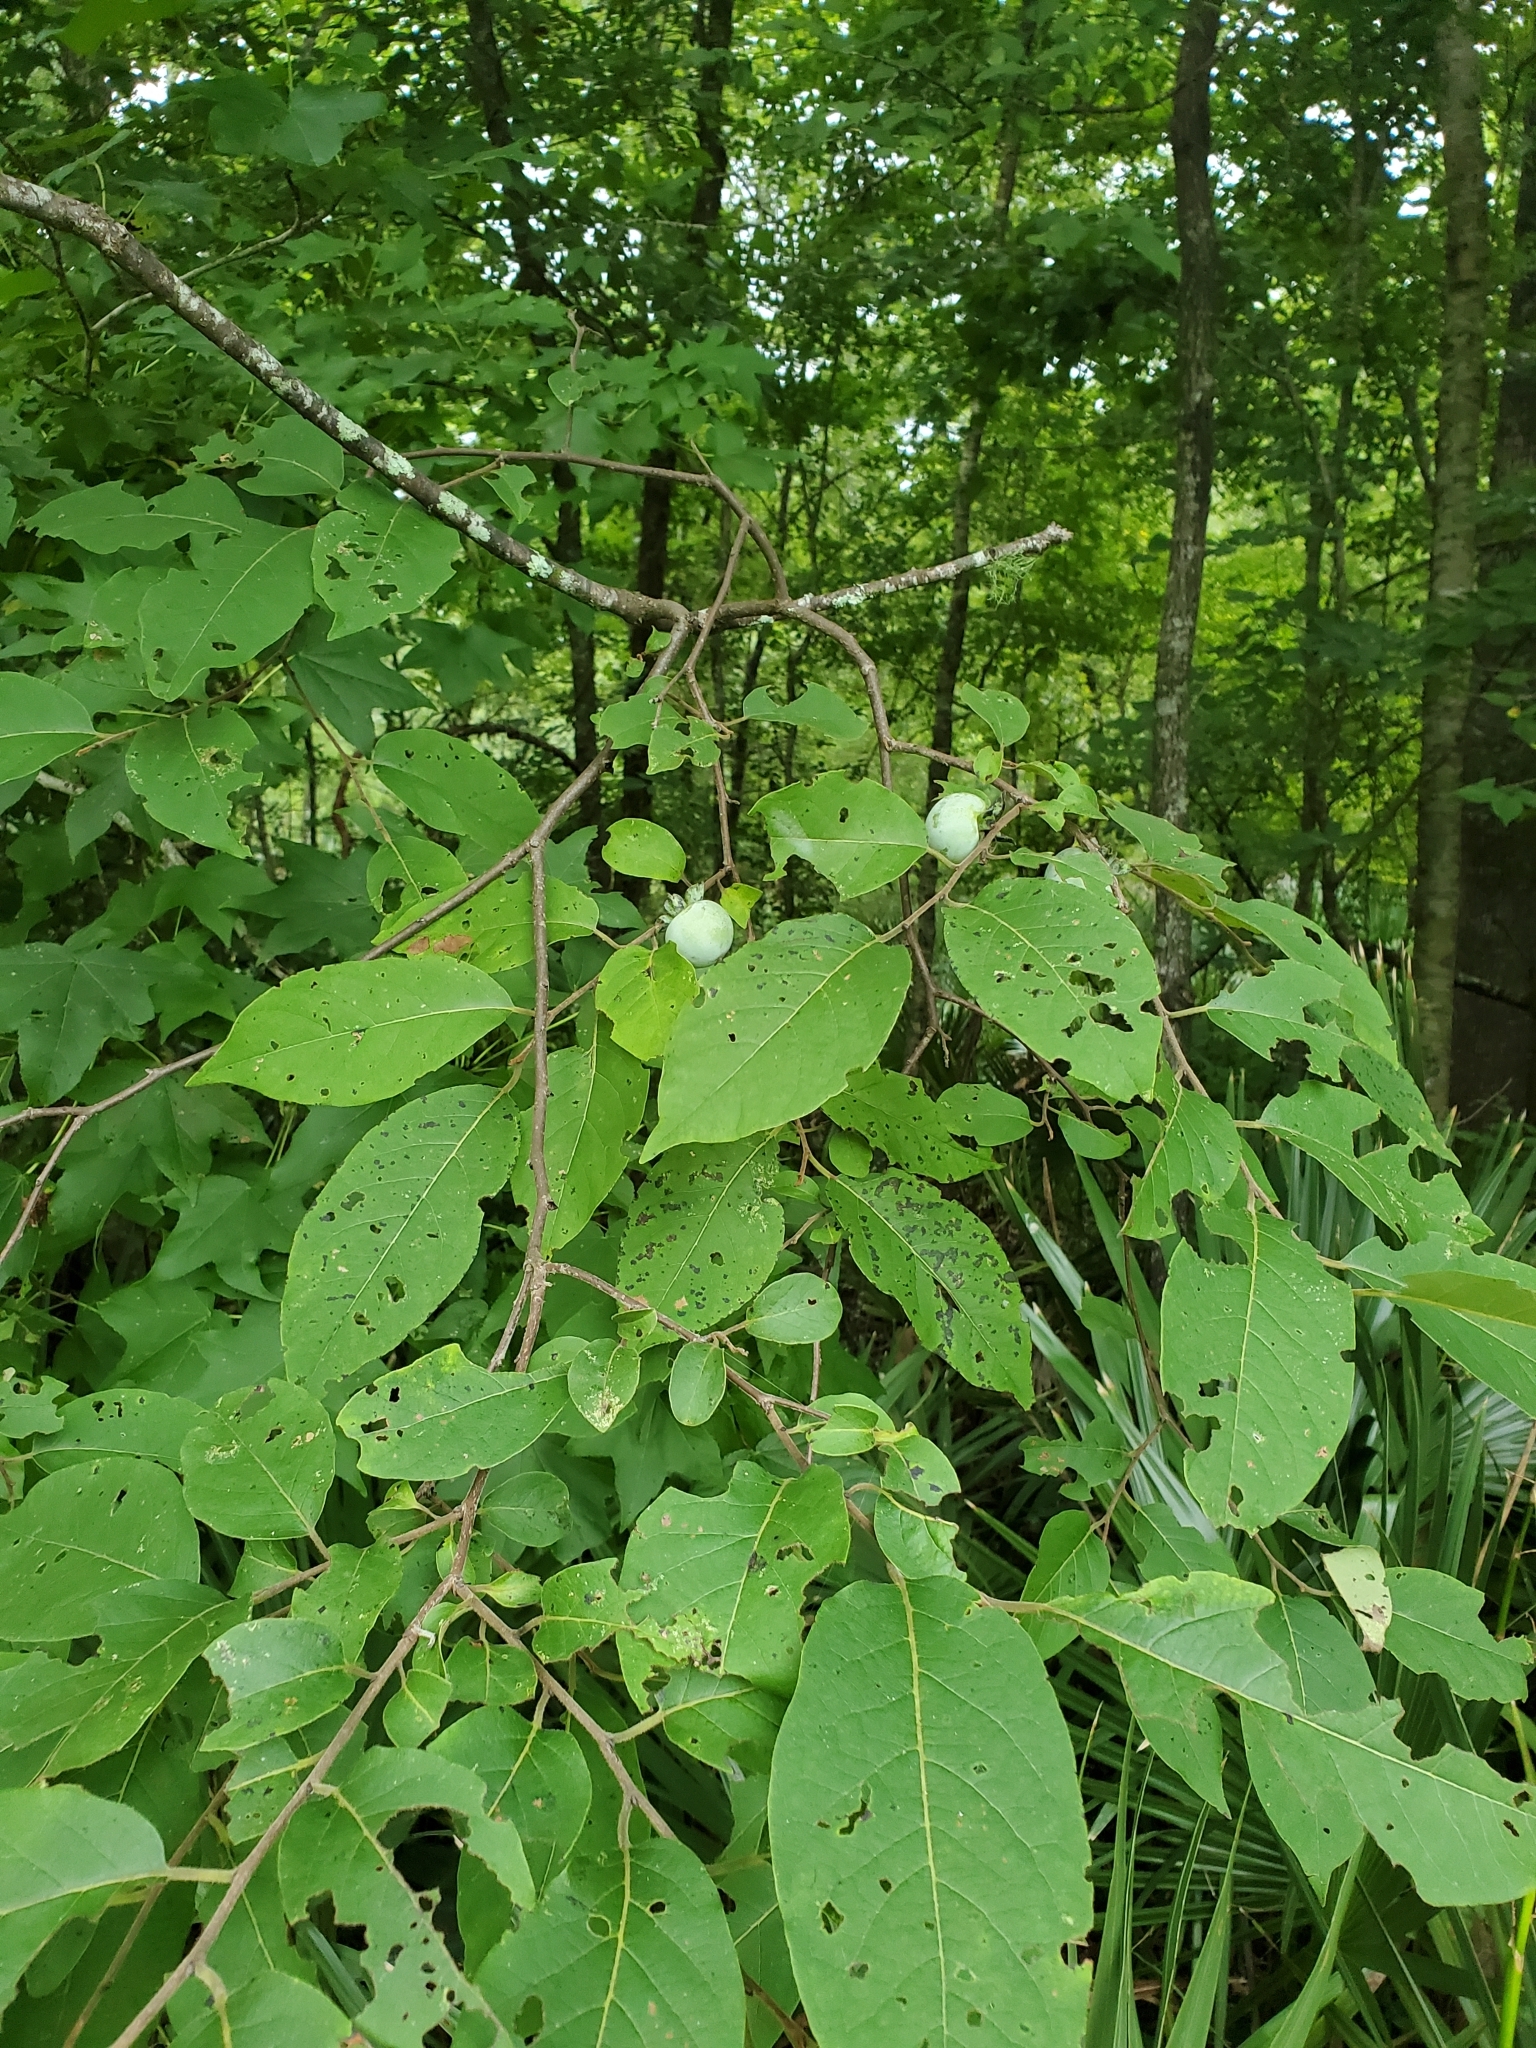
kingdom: Plantae
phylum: Tracheophyta
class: Magnoliopsida
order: Ericales
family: Ebenaceae
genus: Diospyros
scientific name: Diospyros virginiana
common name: Persimmon
